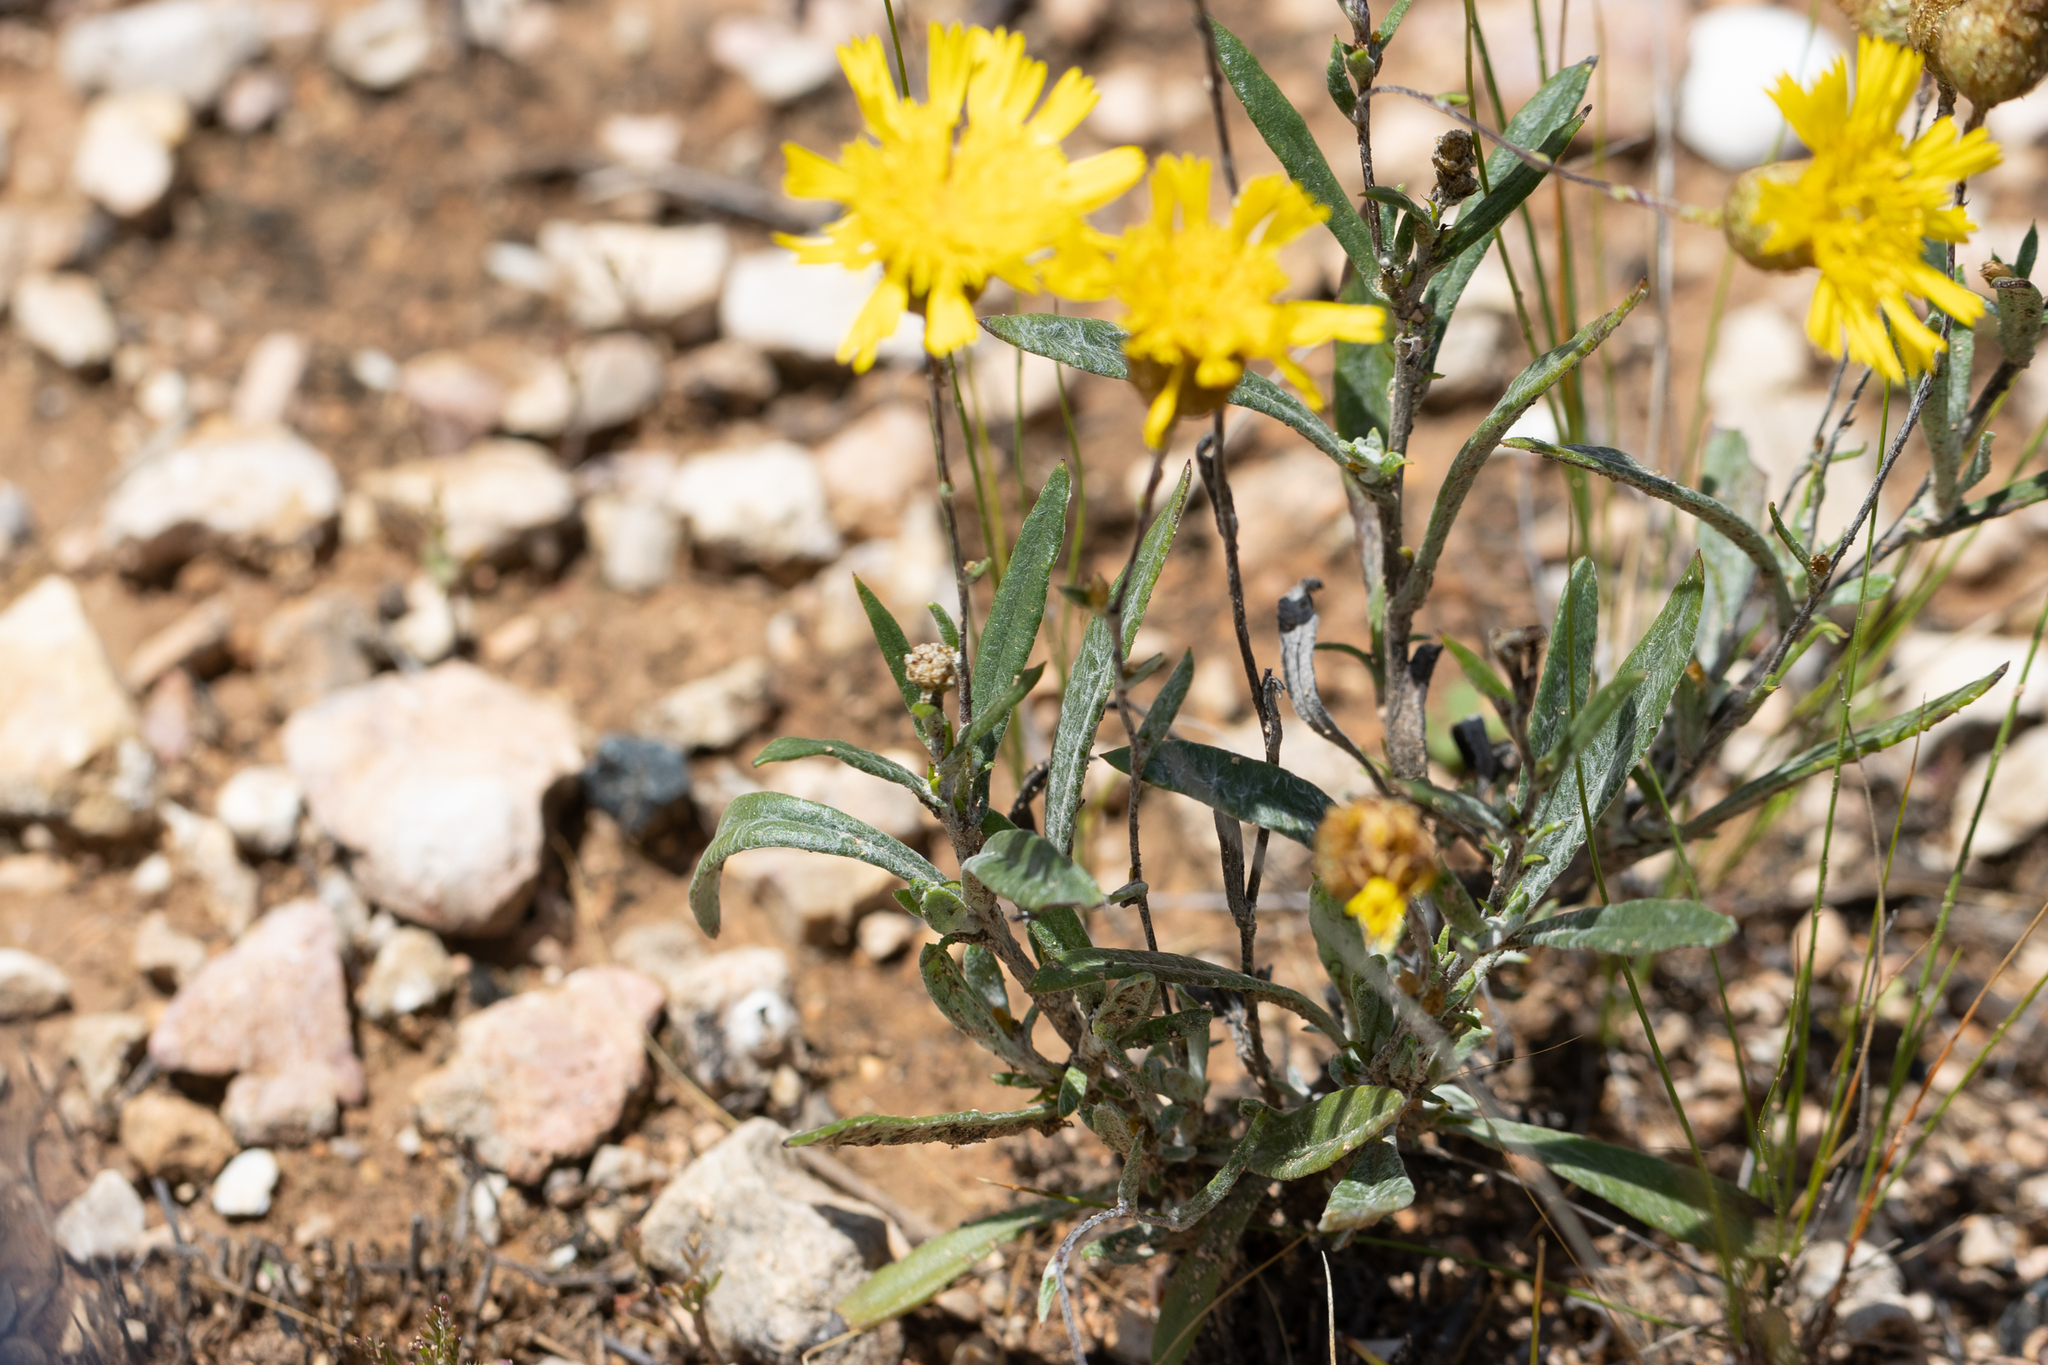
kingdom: Plantae
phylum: Tracheophyta
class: Magnoliopsida
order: Asterales
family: Asteraceae
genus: Podolepis
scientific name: Podolepis rugata
